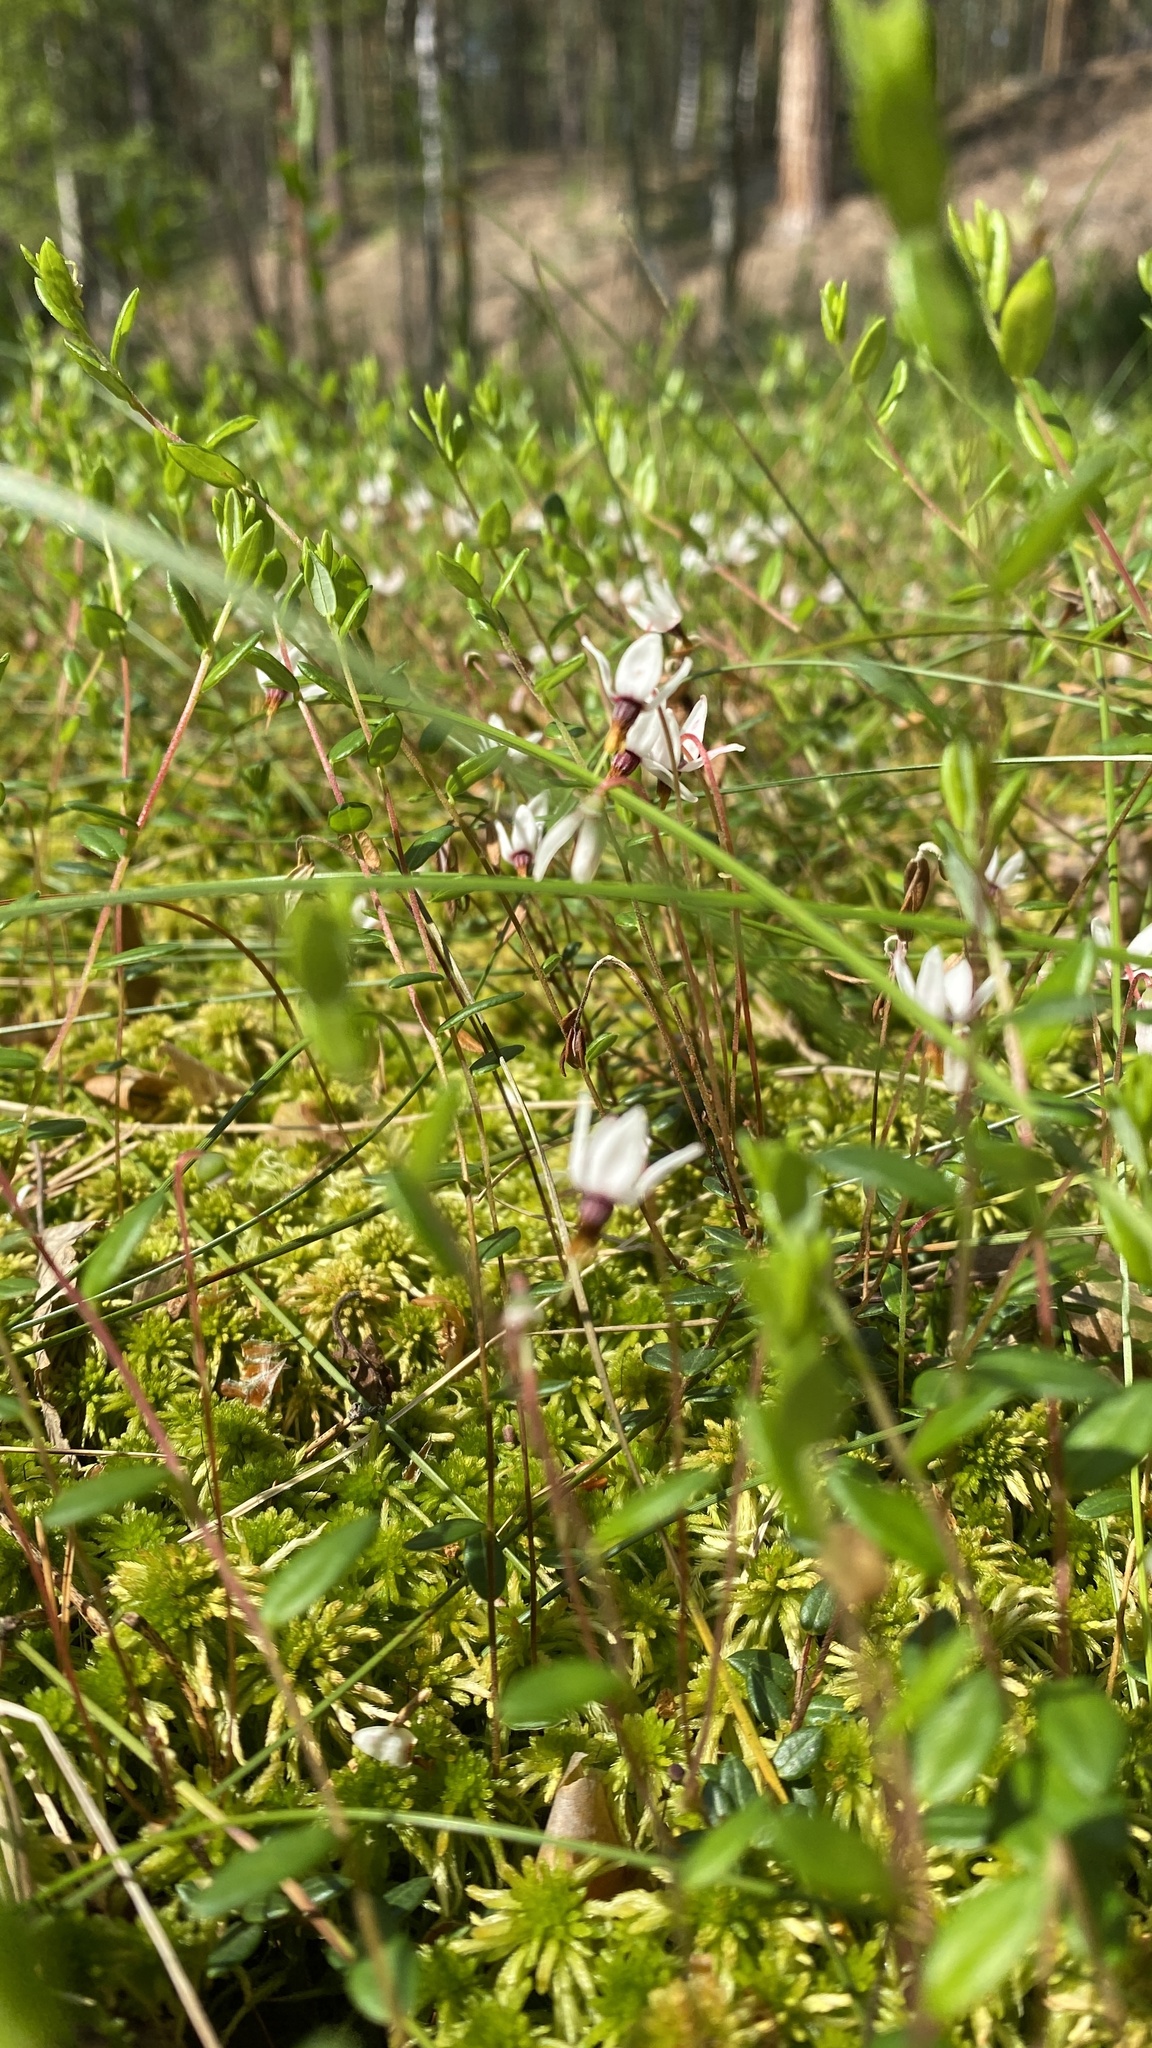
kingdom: Plantae
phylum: Tracheophyta
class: Magnoliopsida
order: Ericales
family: Ericaceae
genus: Vaccinium
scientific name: Vaccinium oxycoccos
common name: Cranberry
